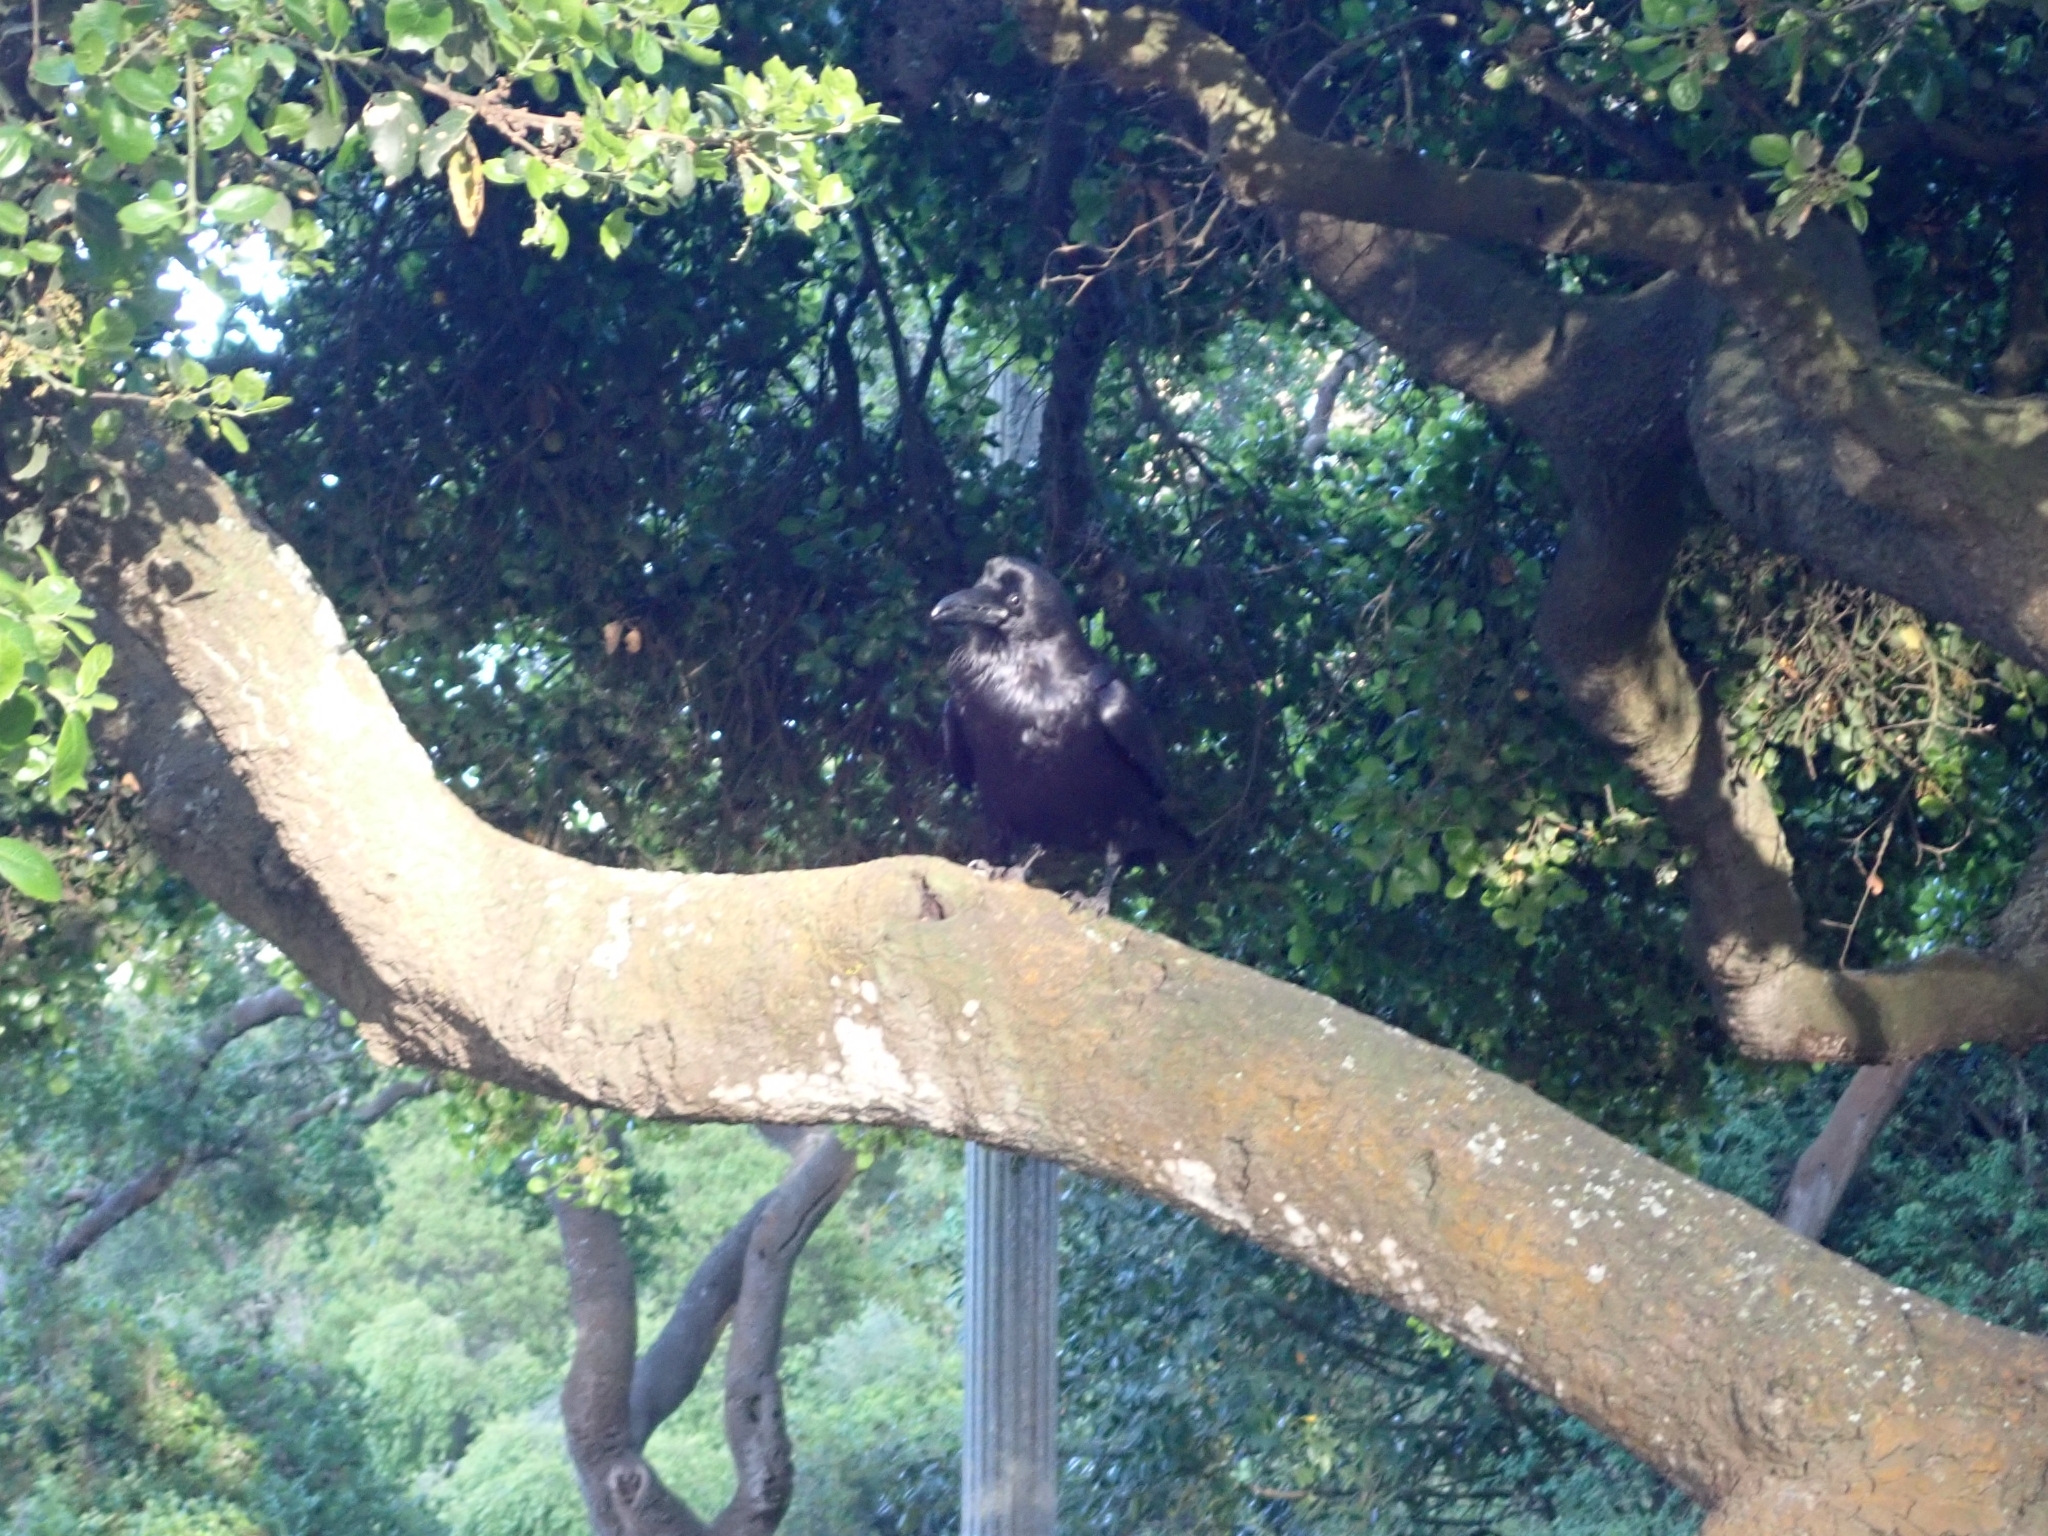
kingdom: Animalia
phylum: Chordata
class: Aves
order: Passeriformes
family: Corvidae
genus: Corvus
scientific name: Corvus corax
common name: Common raven
